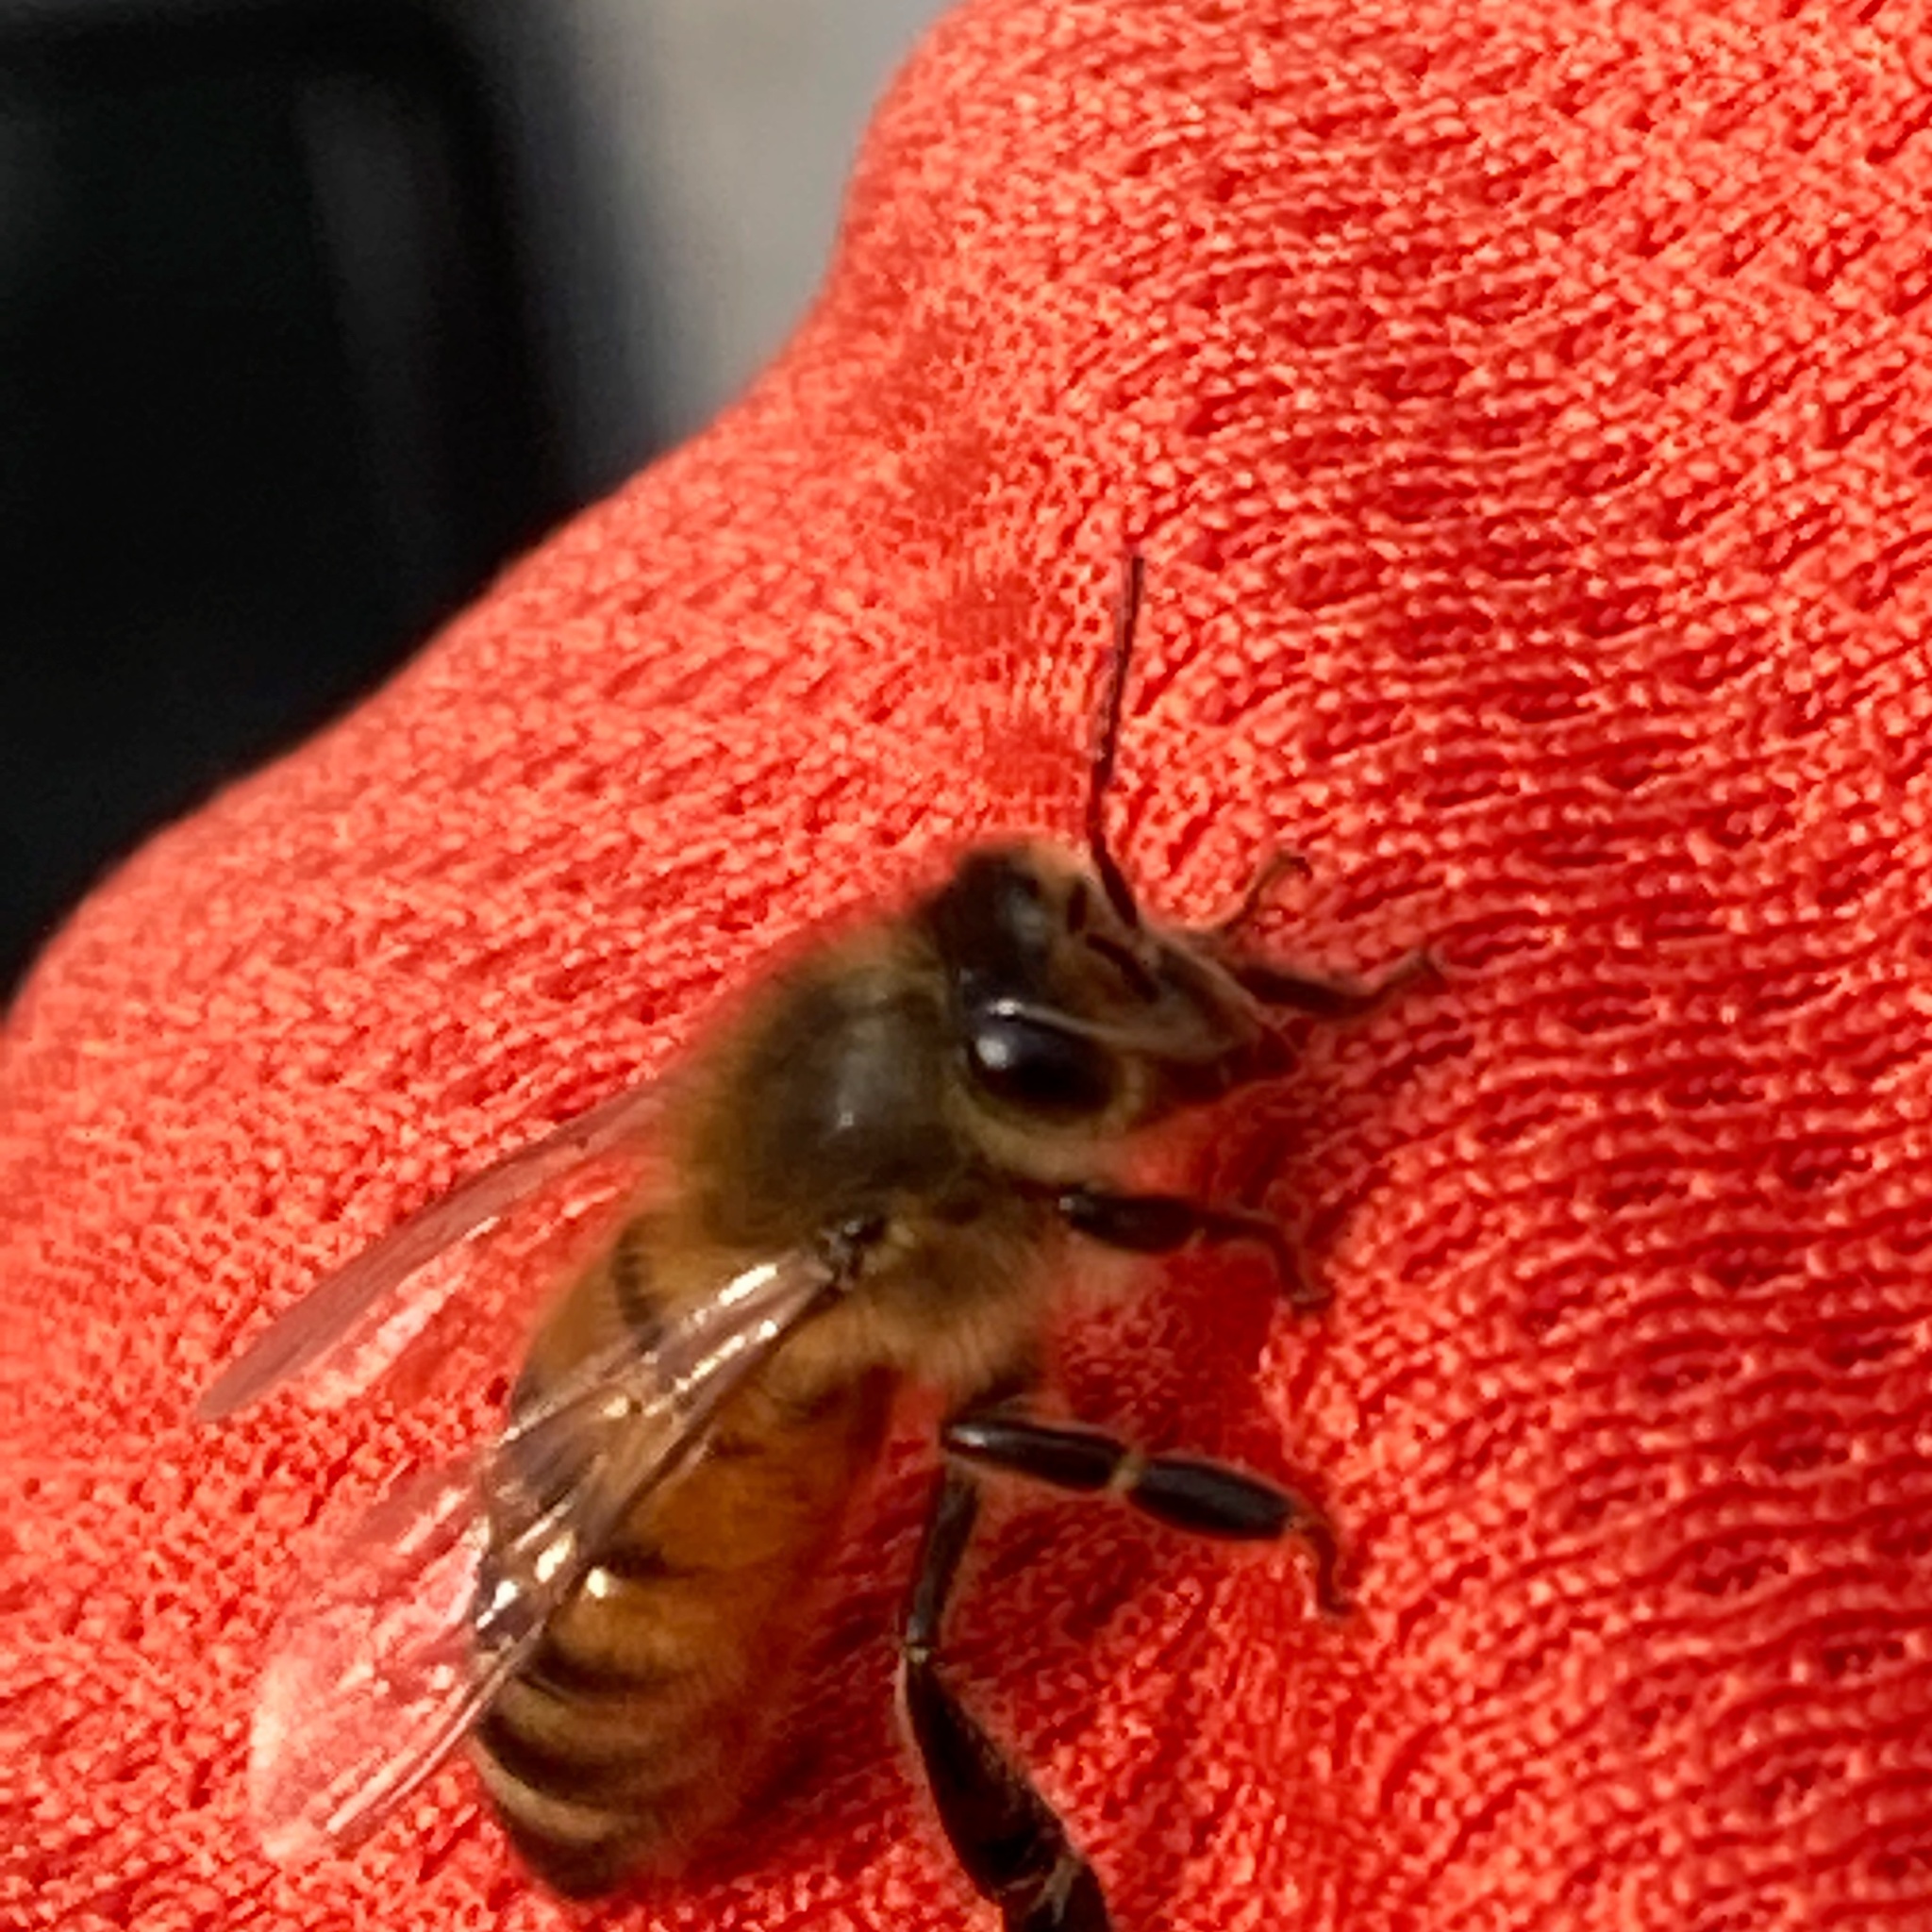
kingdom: Animalia
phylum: Arthropoda
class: Insecta
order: Hymenoptera
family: Apidae
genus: Apis
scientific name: Apis mellifera
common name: Honey bee
